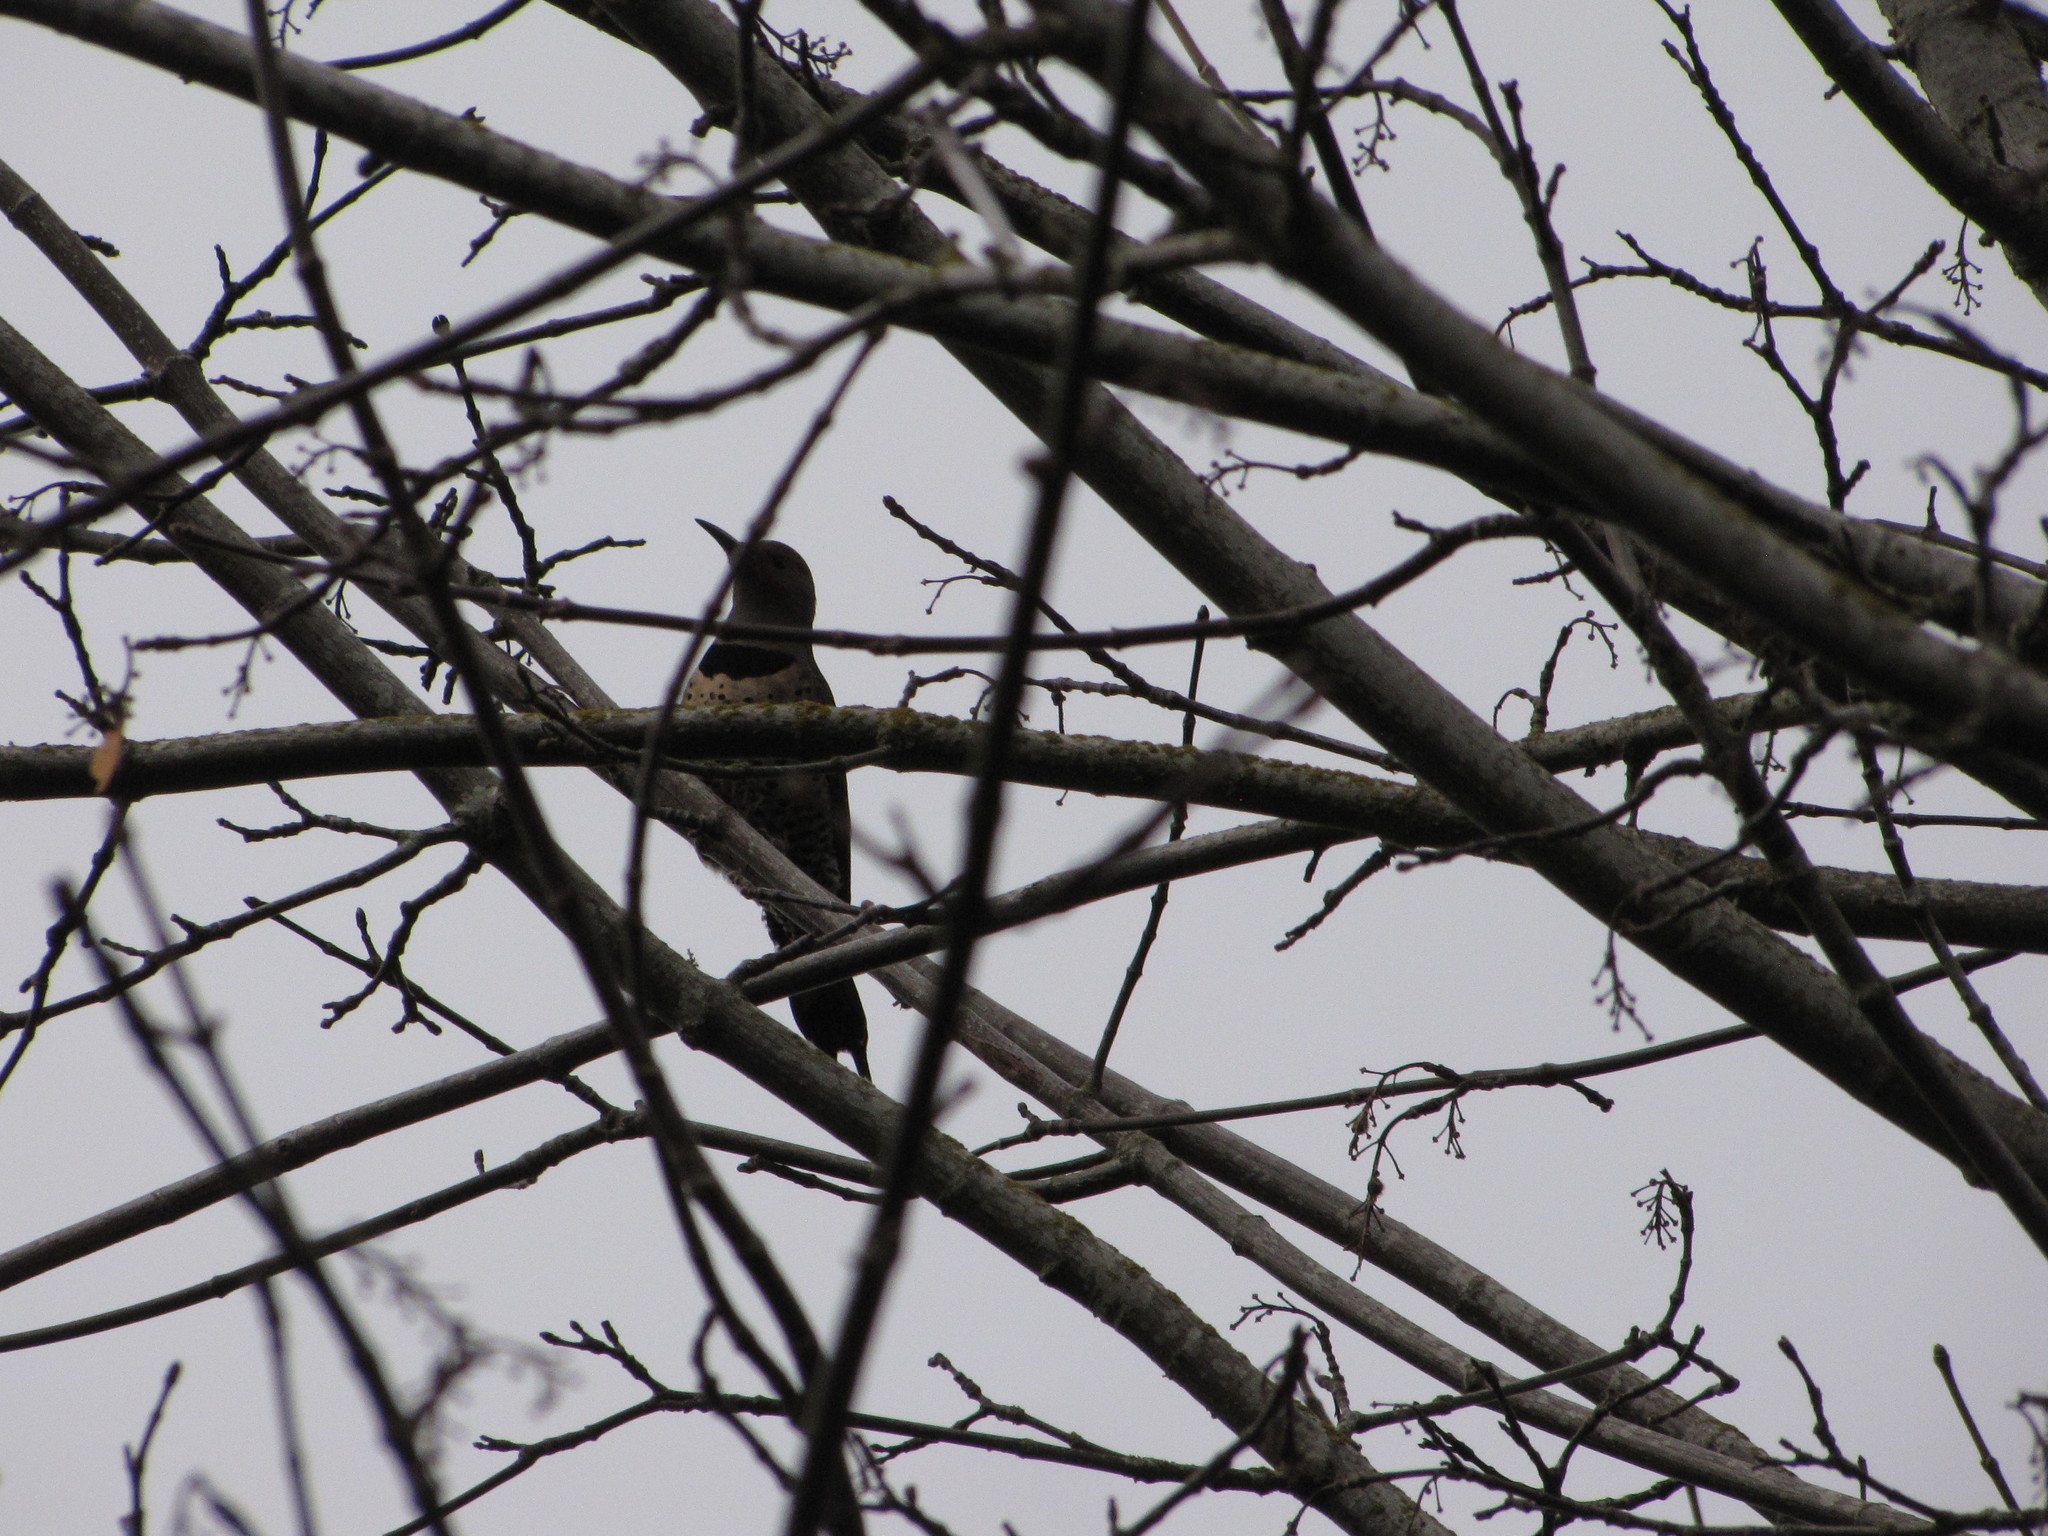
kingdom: Animalia
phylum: Chordata
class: Aves
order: Piciformes
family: Picidae
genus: Colaptes
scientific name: Colaptes auratus
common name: Northern flicker
